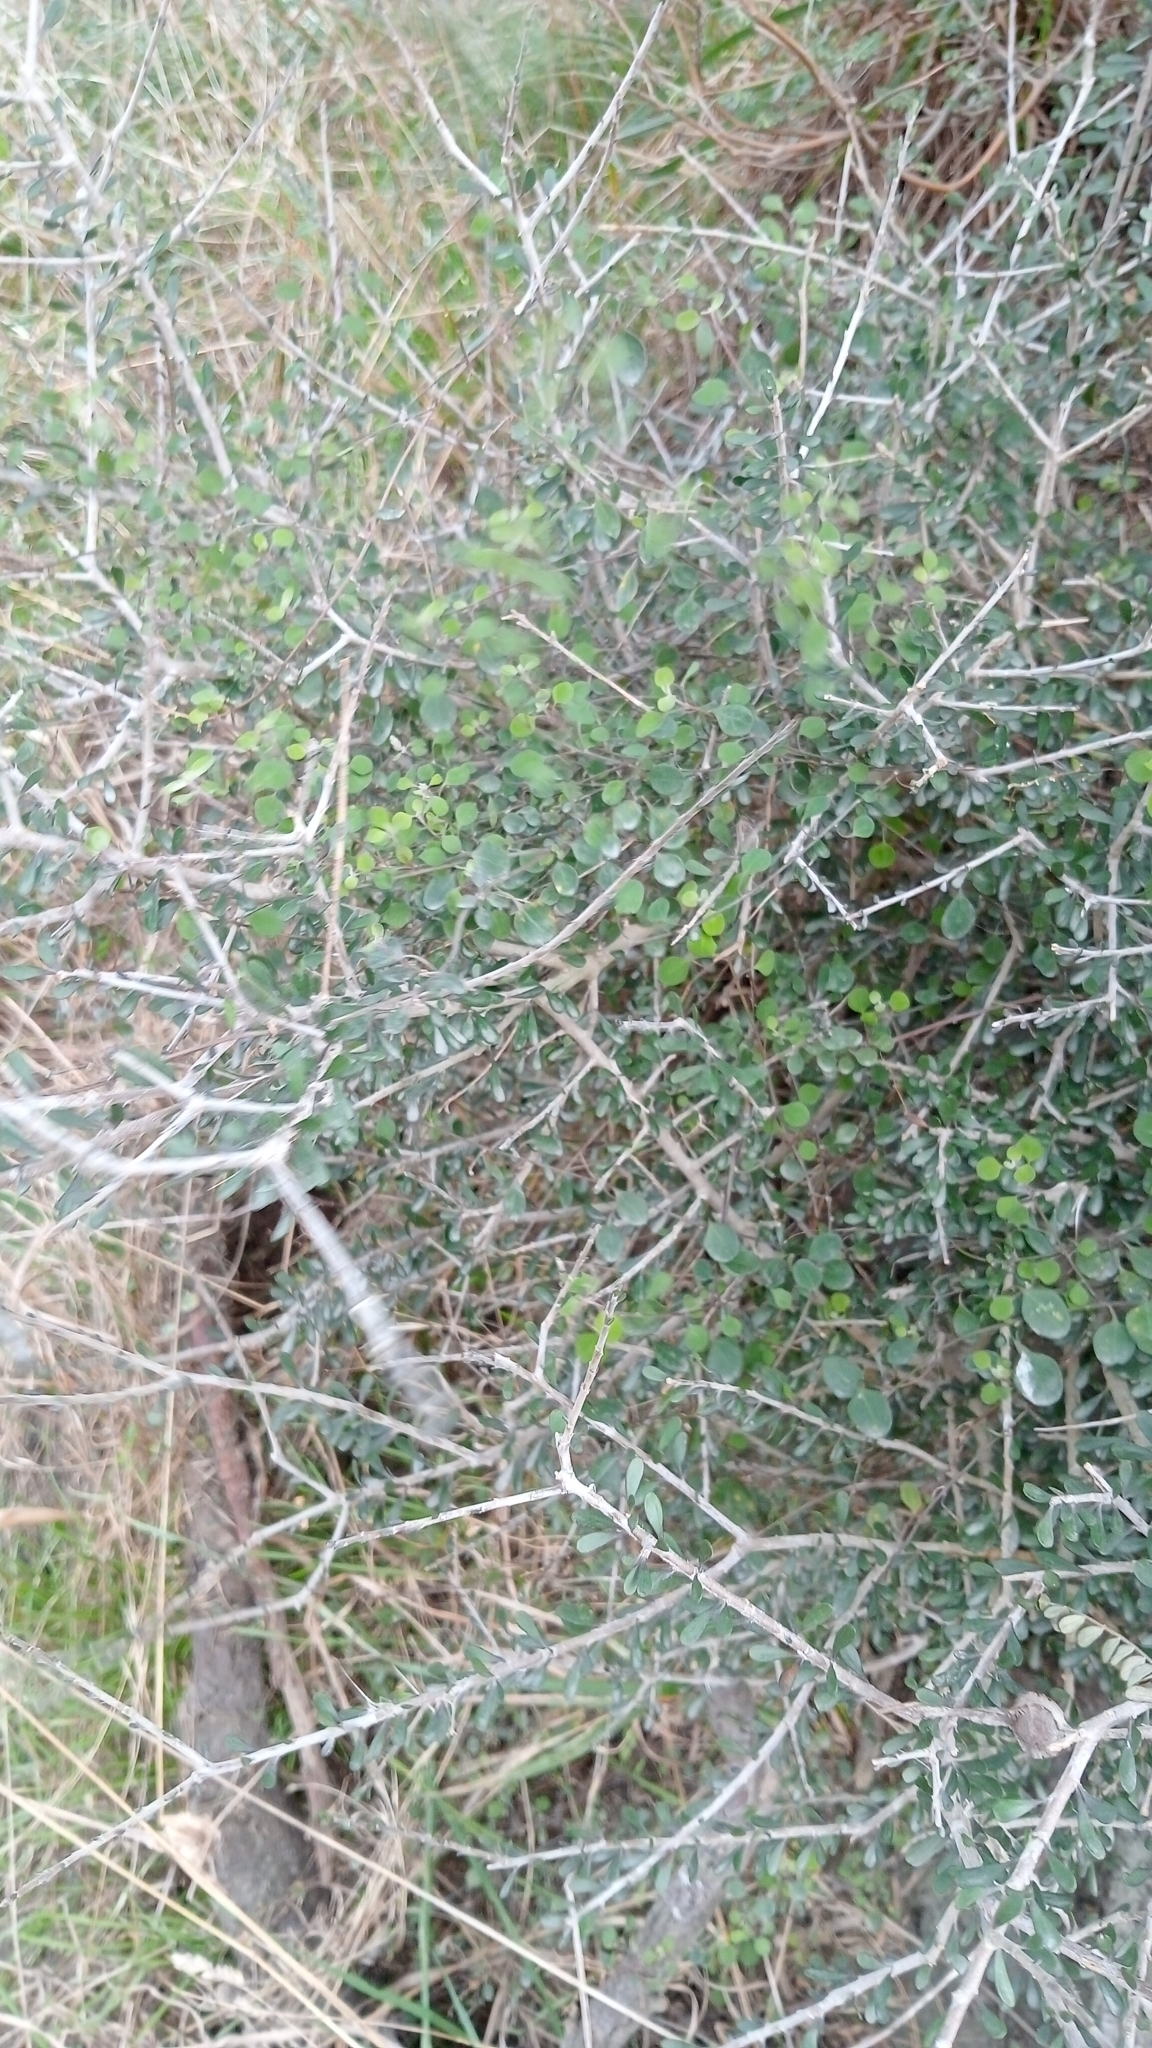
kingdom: Plantae
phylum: Tracheophyta
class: Magnoliopsida
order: Caryophyllales
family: Amaranthaceae
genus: Chenopodium
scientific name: Chenopodium allanii
